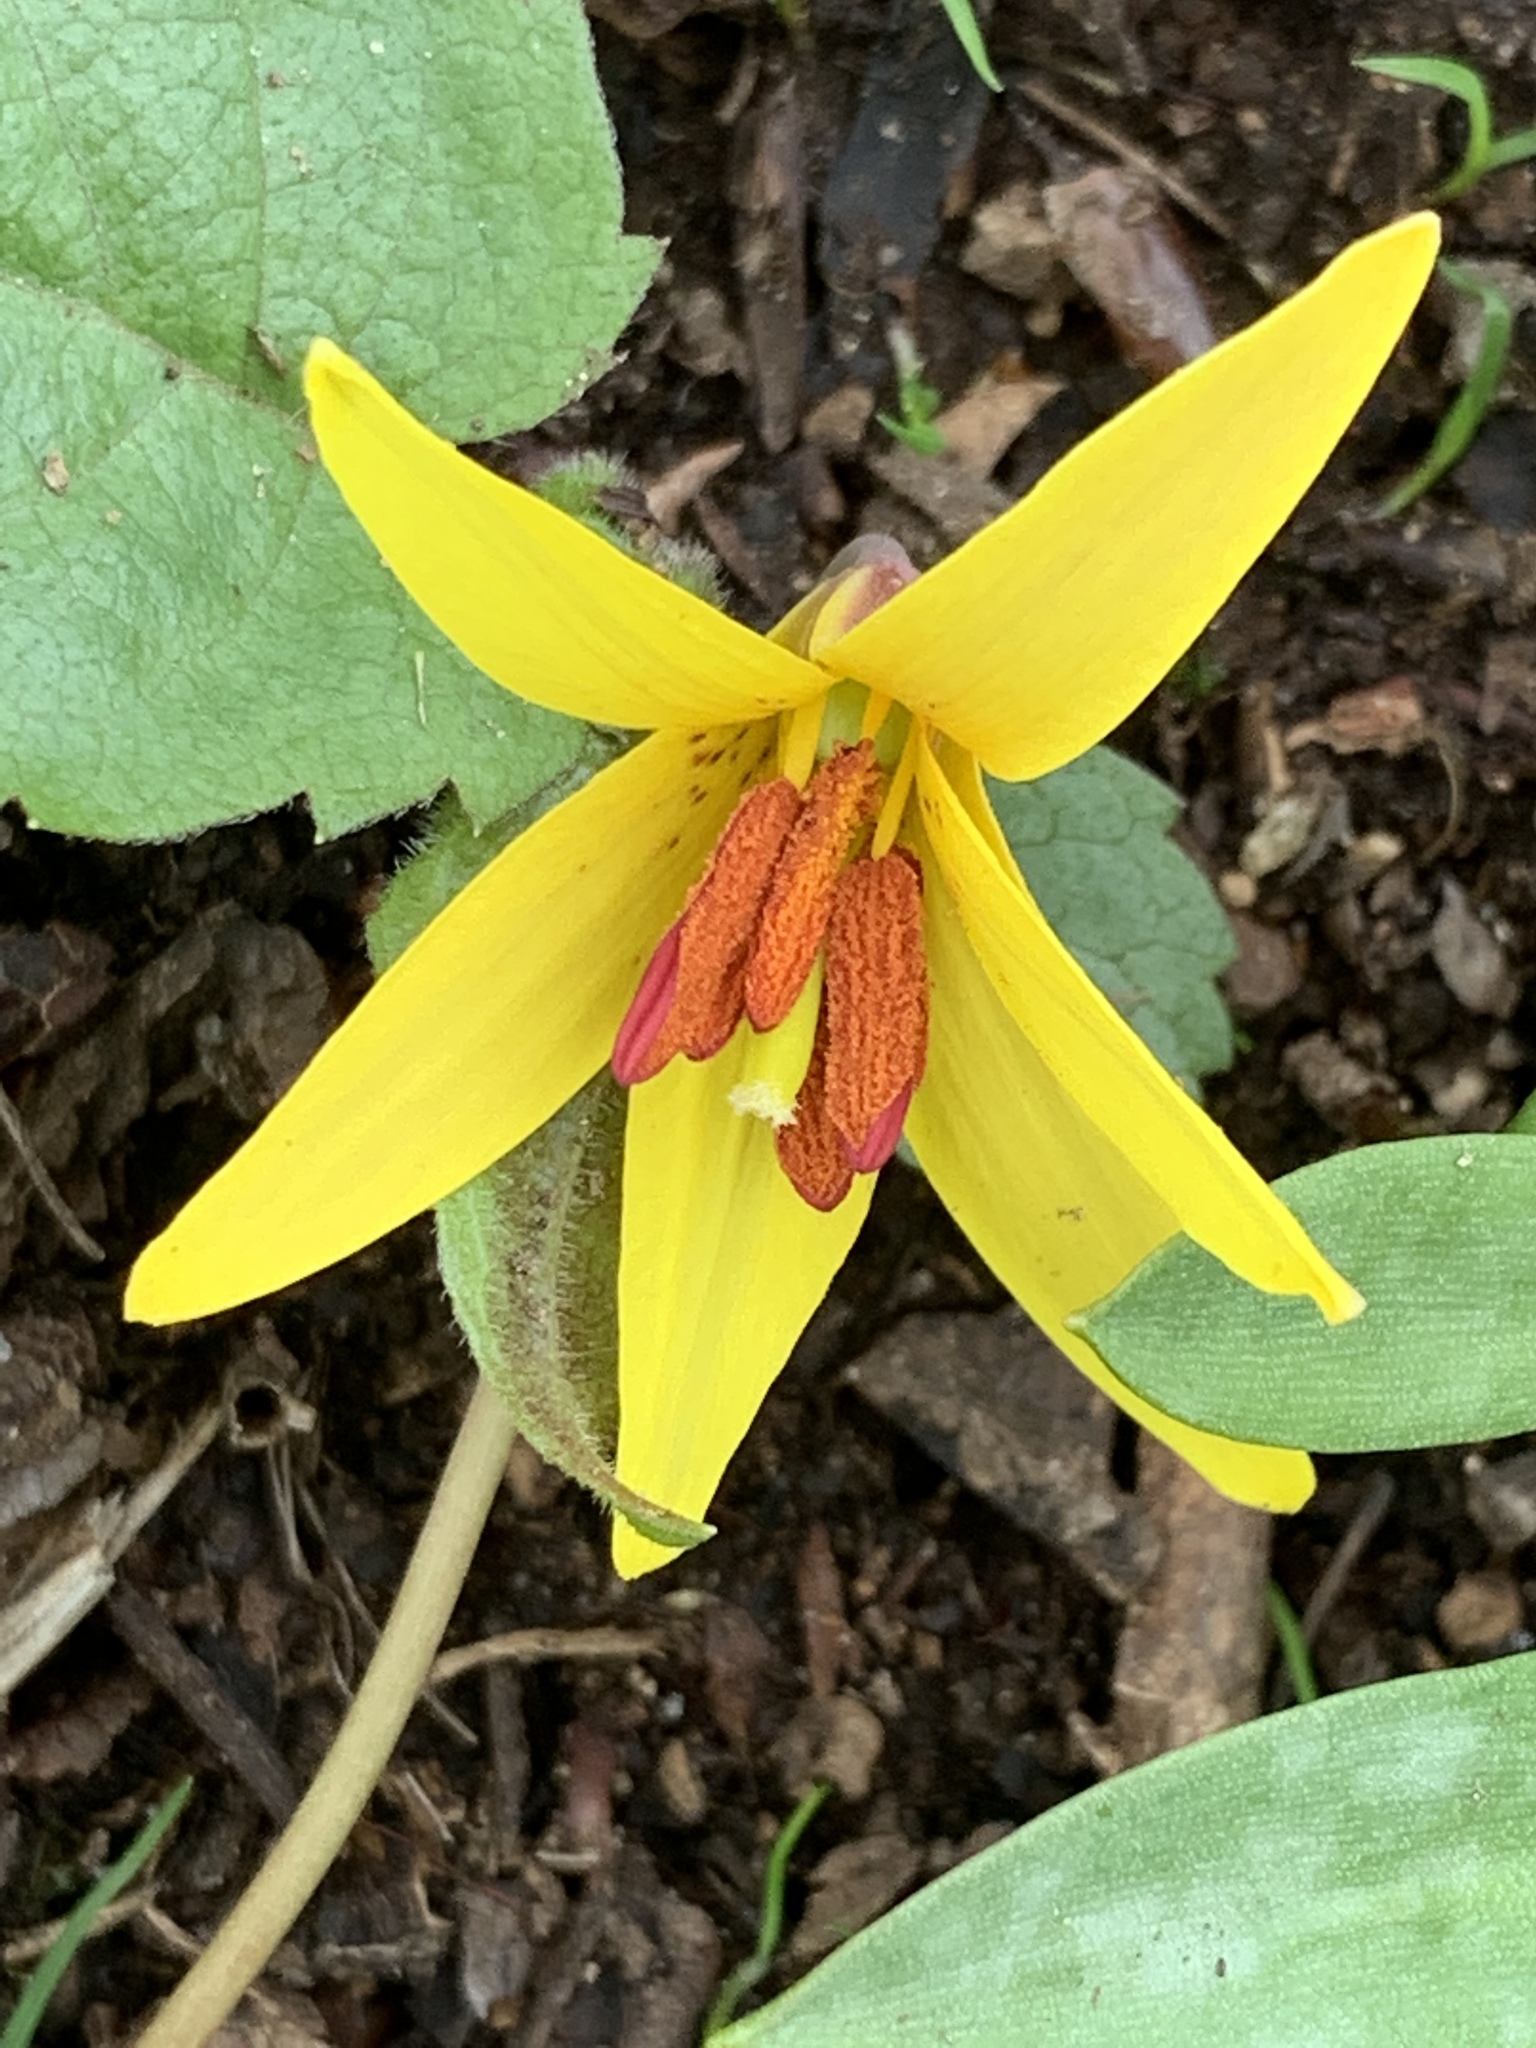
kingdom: Plantae
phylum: Tracheophyta
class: Liliopsida
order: Liliales
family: Liliaceae
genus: Erythronium
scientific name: Erythronium americanum
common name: Yellow adder's-tongue
